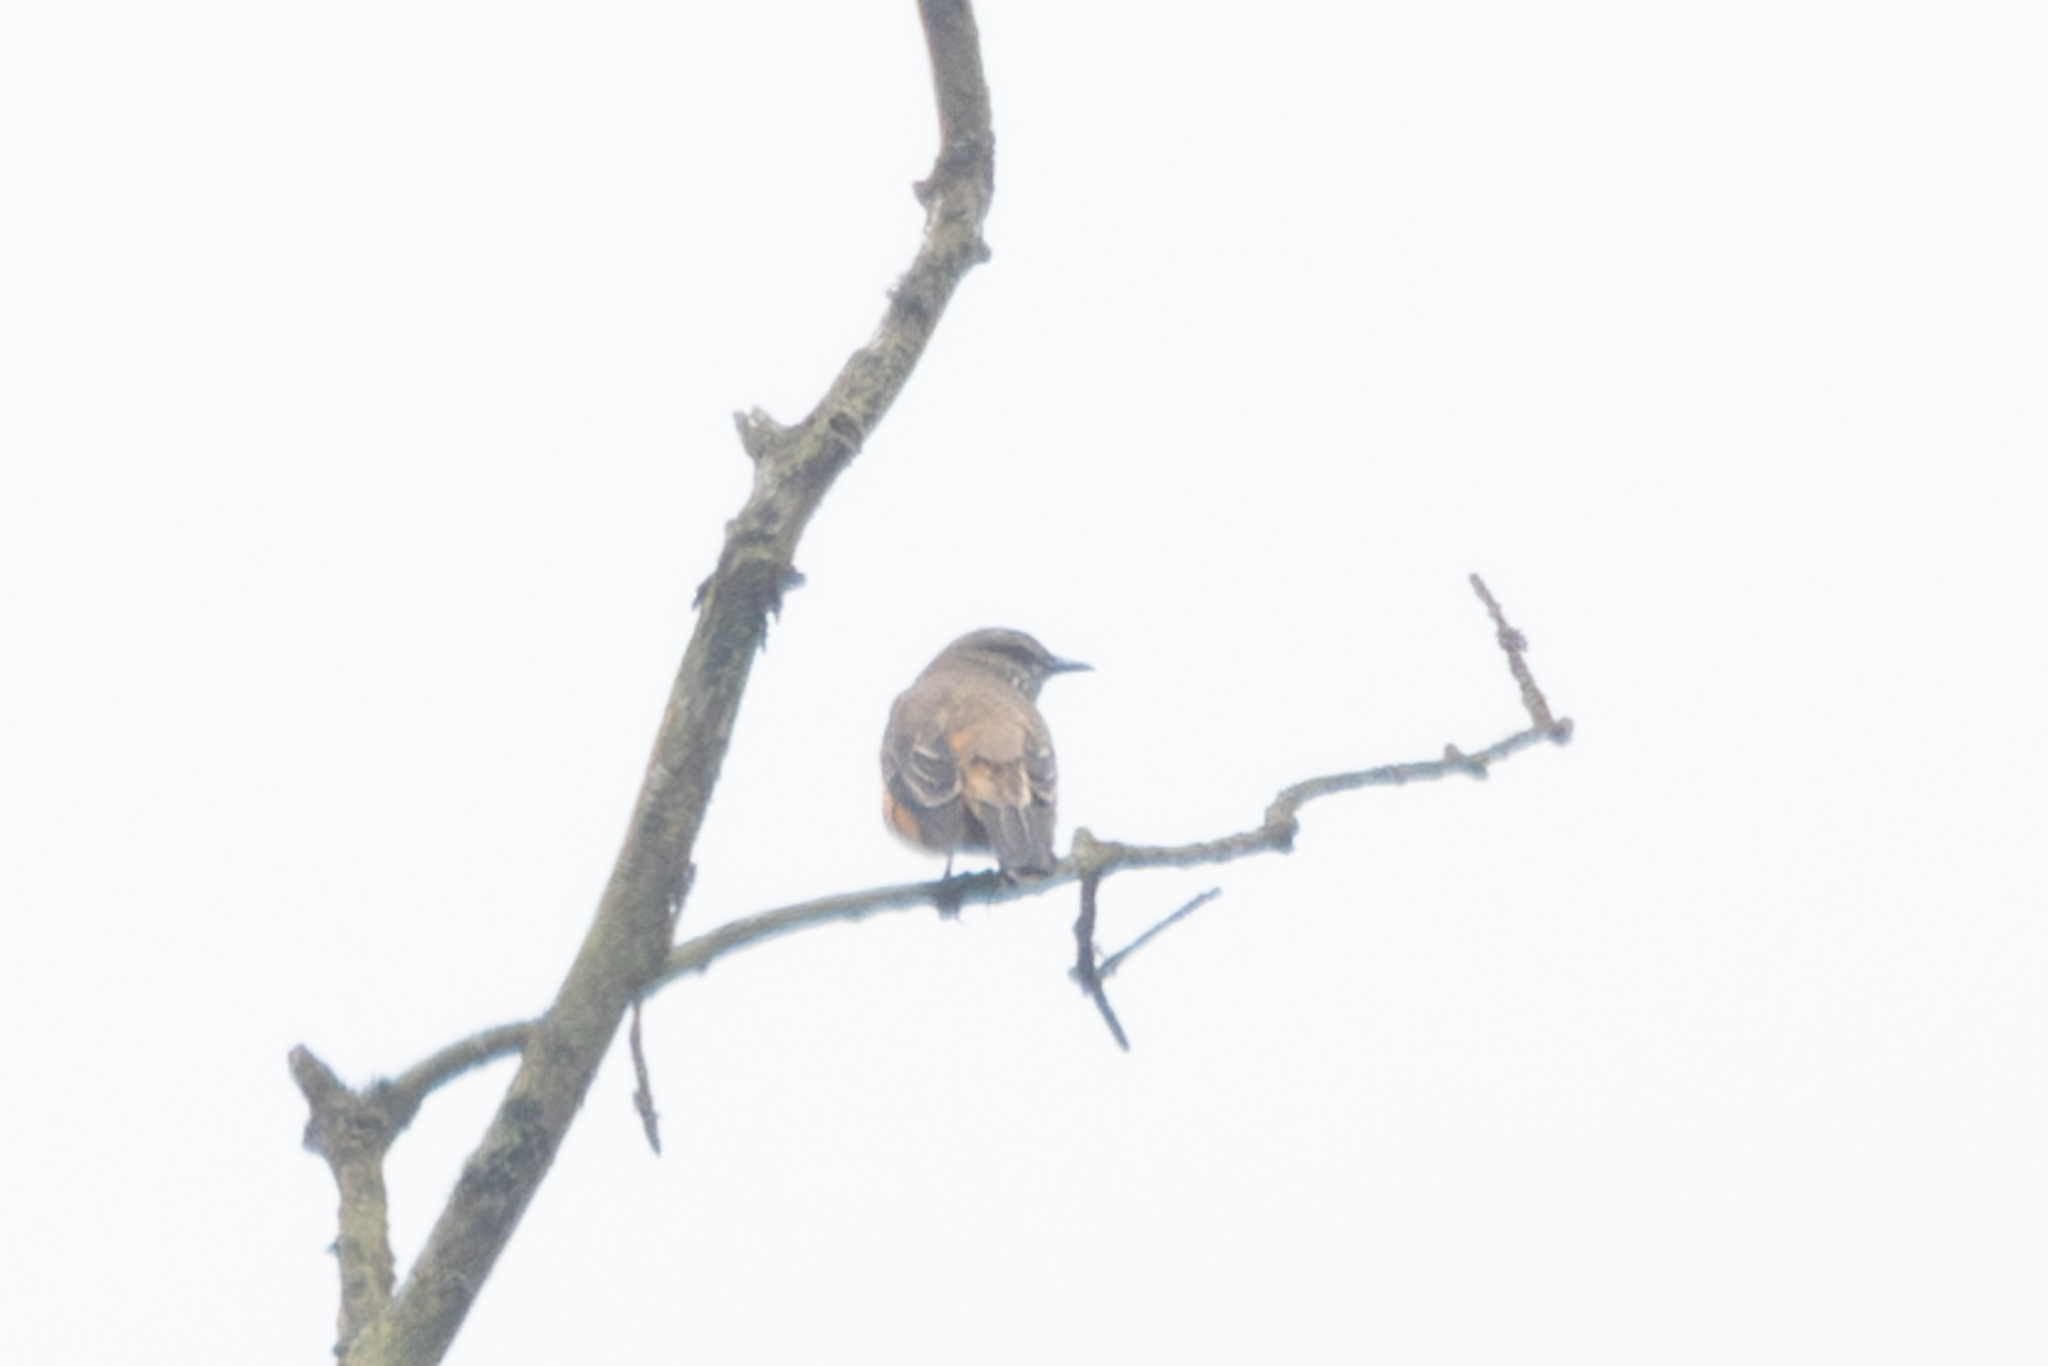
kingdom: Animalia
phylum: Chordata
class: Aves
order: Passeriformes
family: Tyrannidae
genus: Myiotheretes
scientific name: Myiotheretes striaticollis
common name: Streak-throated bush tyrant
